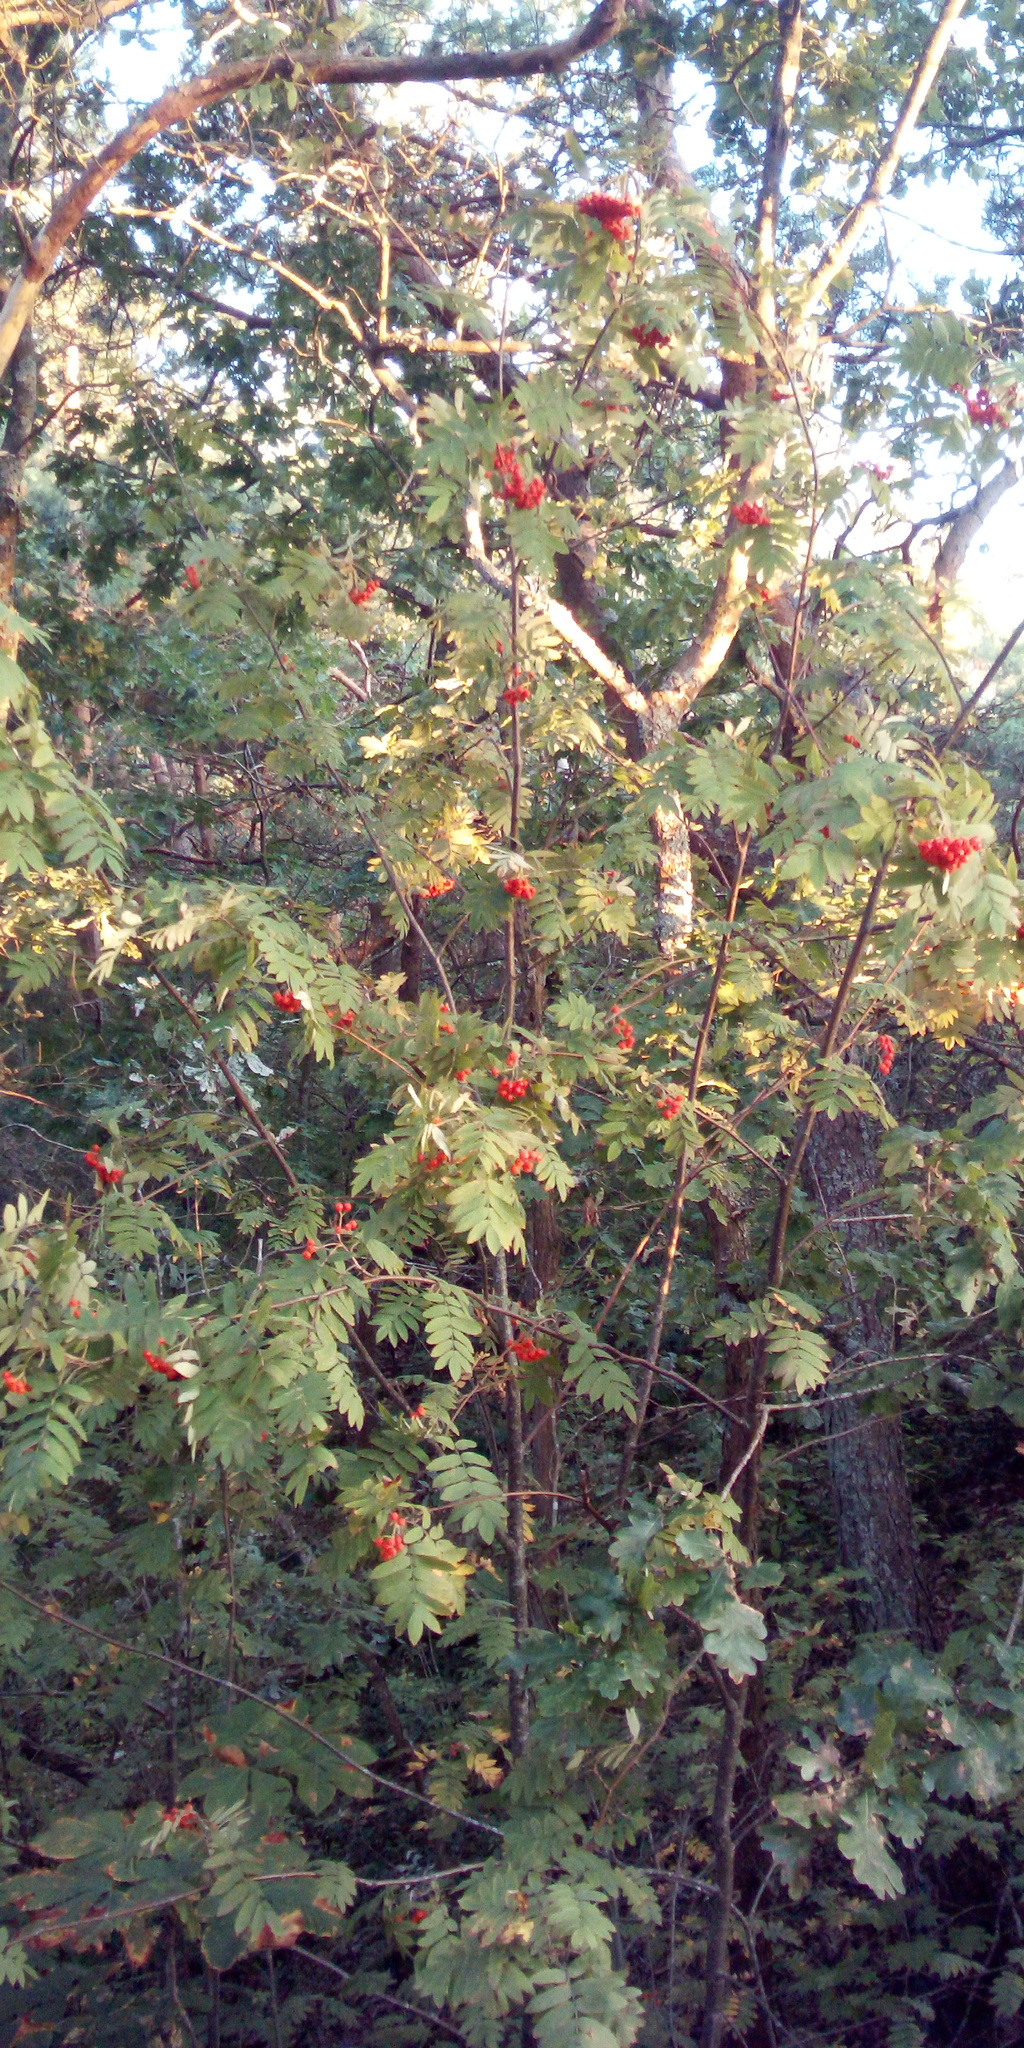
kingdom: Plantae
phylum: Tracheophyta
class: Magnoliopsida
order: Rosales
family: Rosaceae
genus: Sorbus
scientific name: Sorbus aucuparia
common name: Rowan
